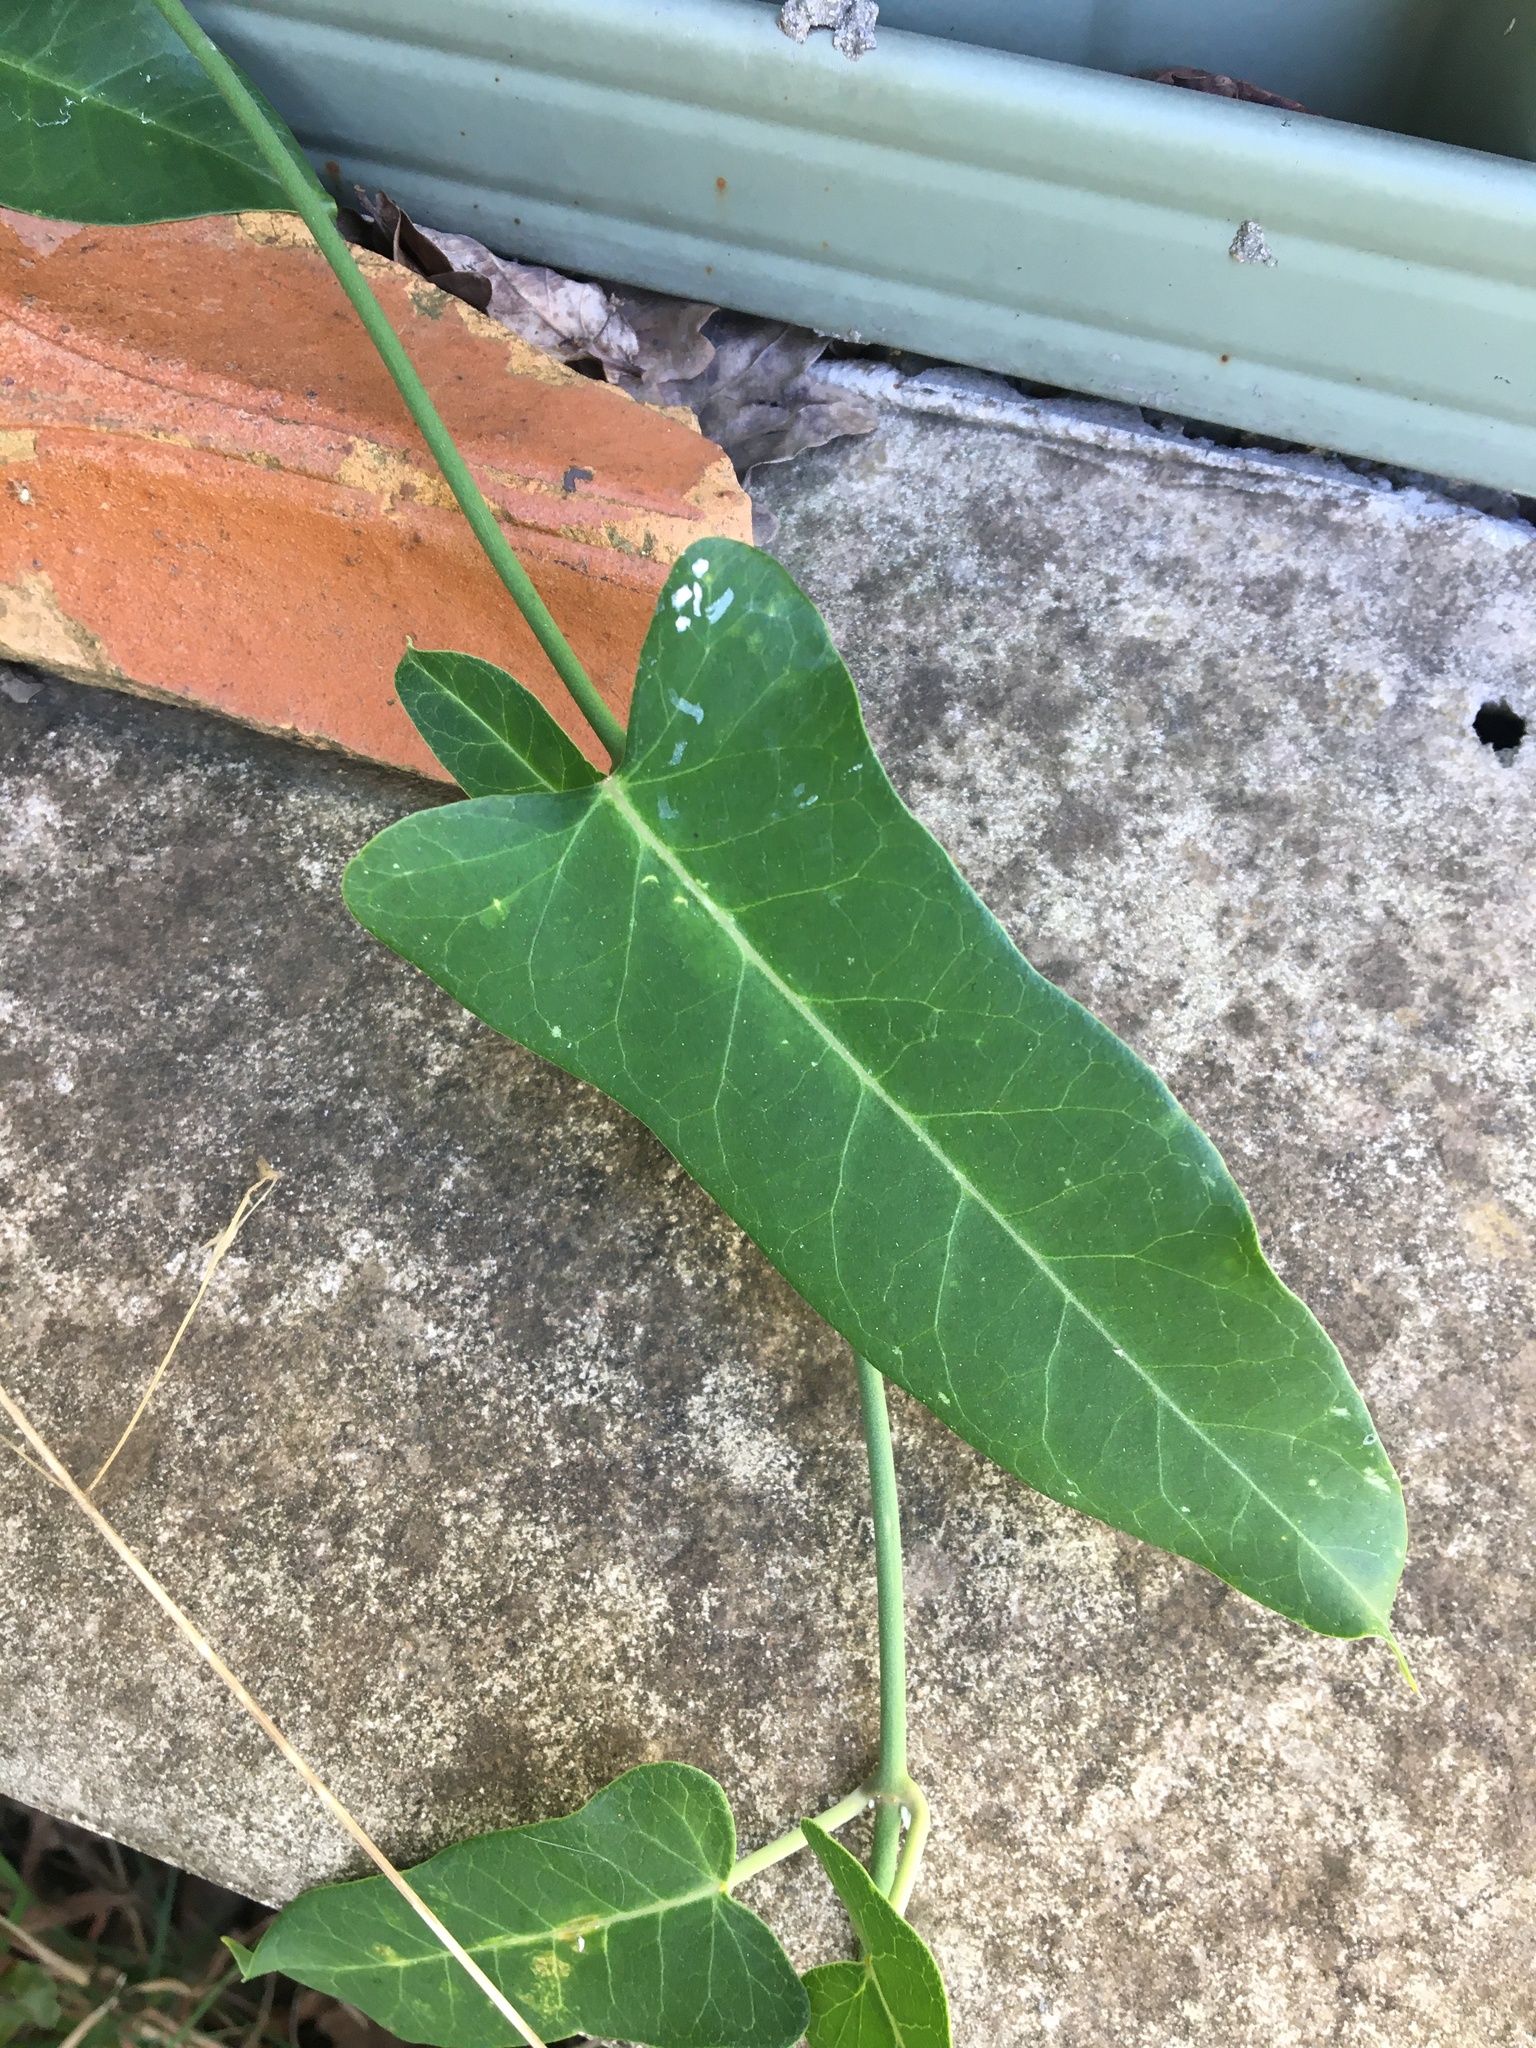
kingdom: Plantae
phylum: Tracheophyta
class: Magnoliopsida
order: Gentianales
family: Apocynaceae
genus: Araujia
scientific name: Araujia sericifera
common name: White bladderflower
